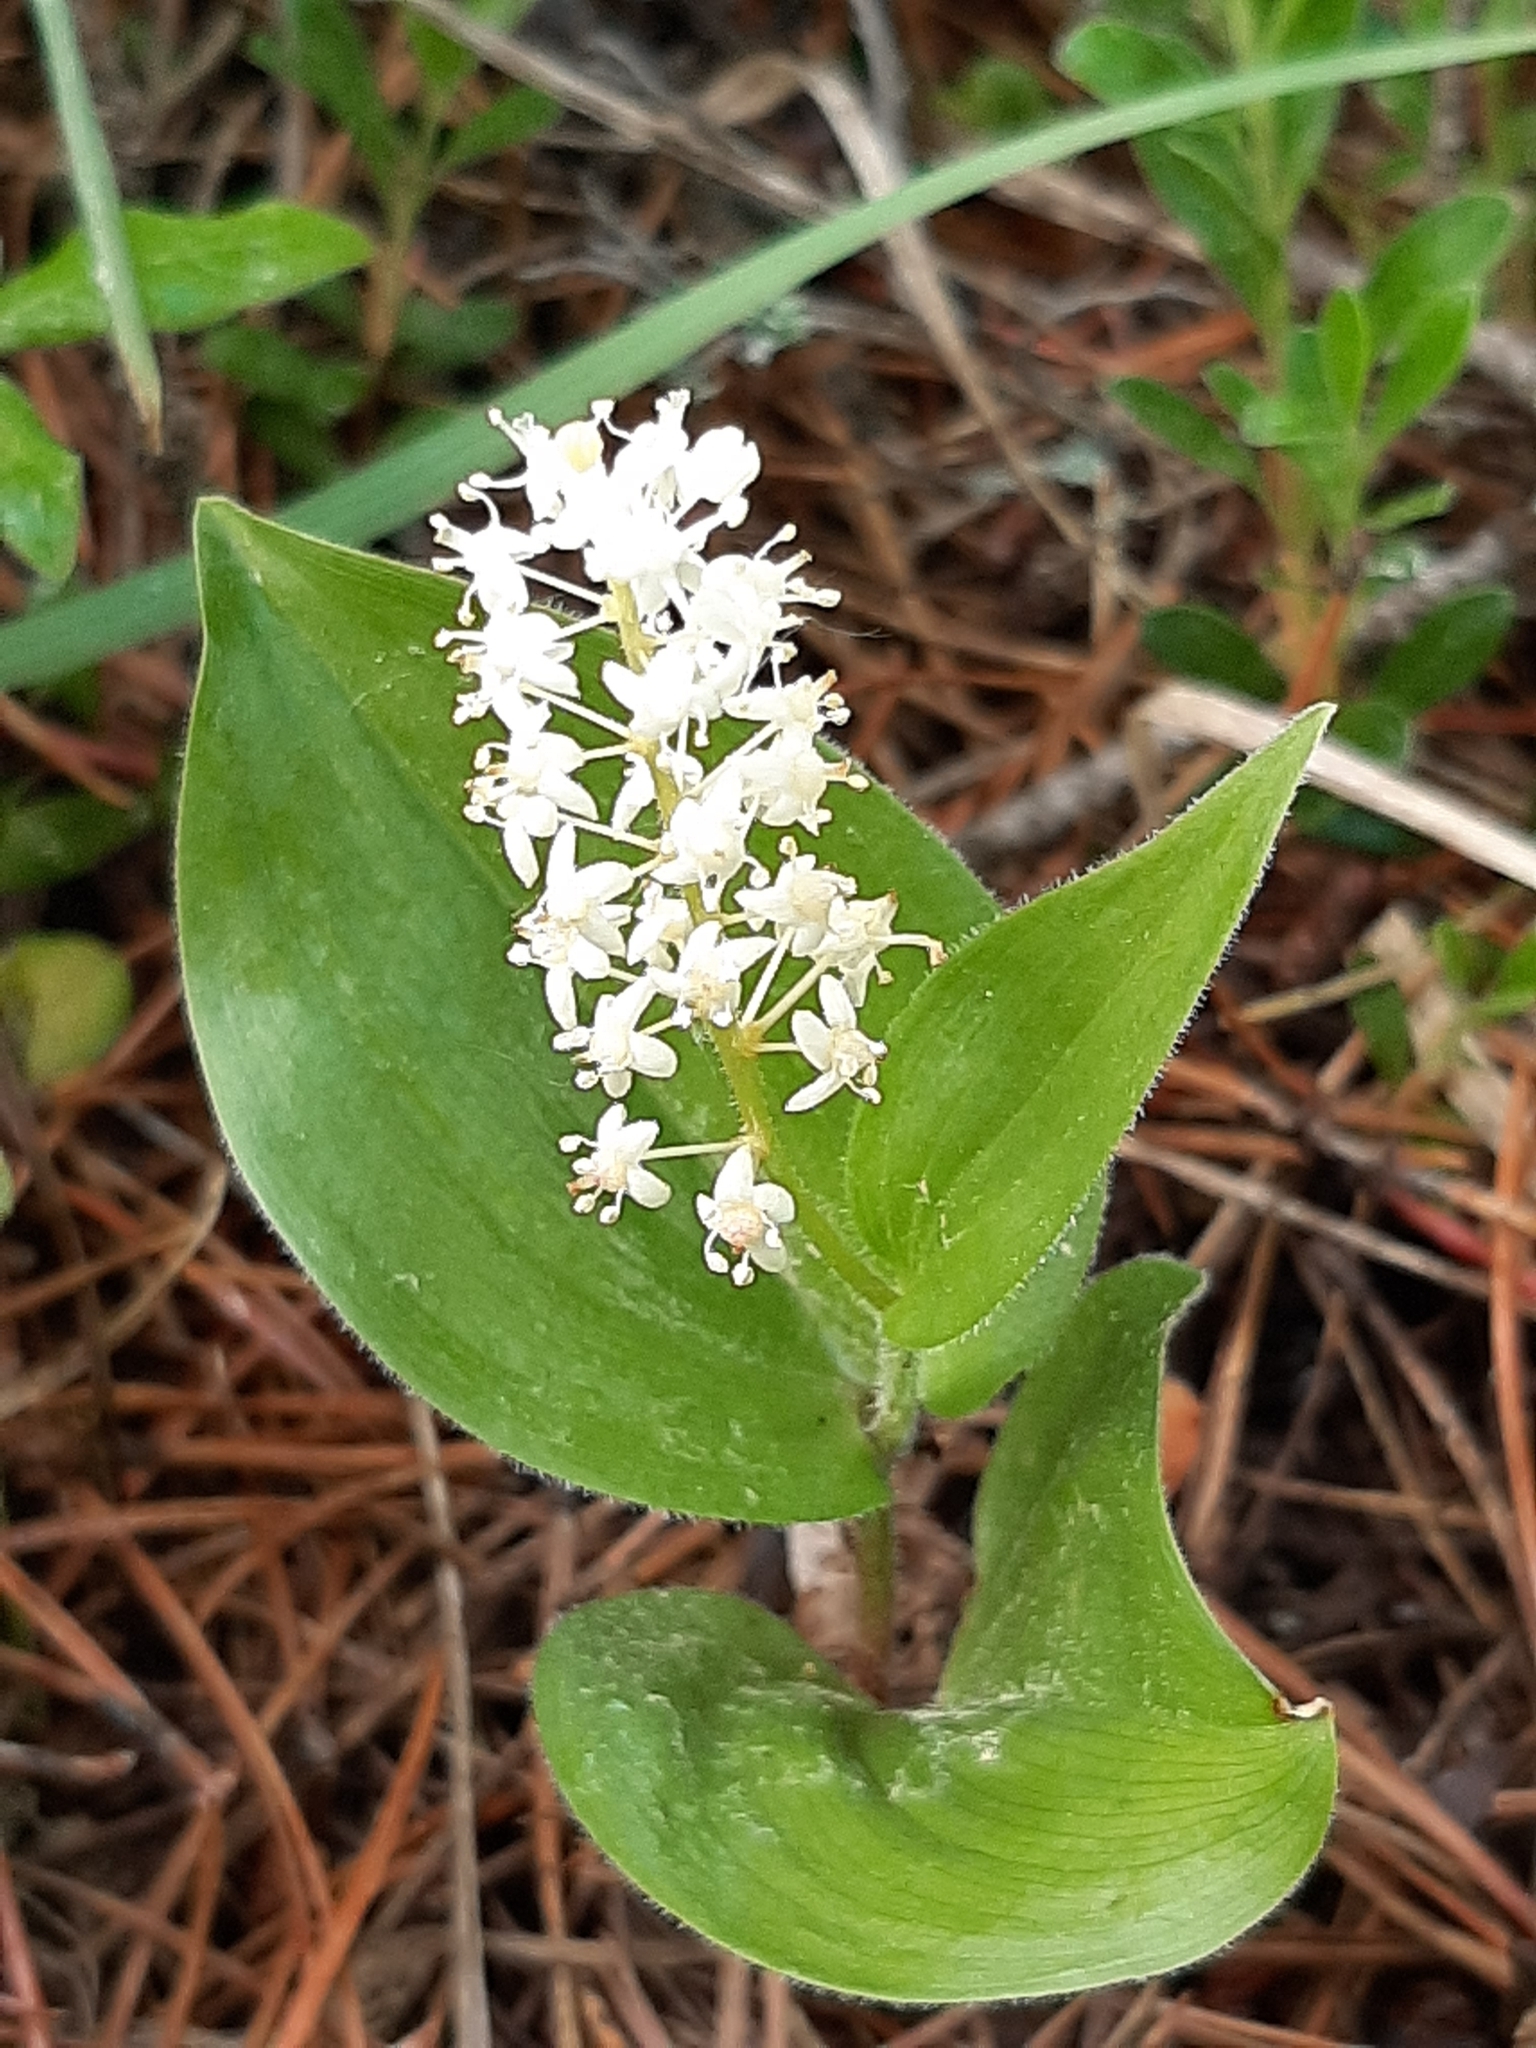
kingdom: Plantae
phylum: Tracheophyta
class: Liliopsida
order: Asparagales
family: Asparagaceae
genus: Maianthemum
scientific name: Maianthemum canadense
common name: False lily-of-the-valley
